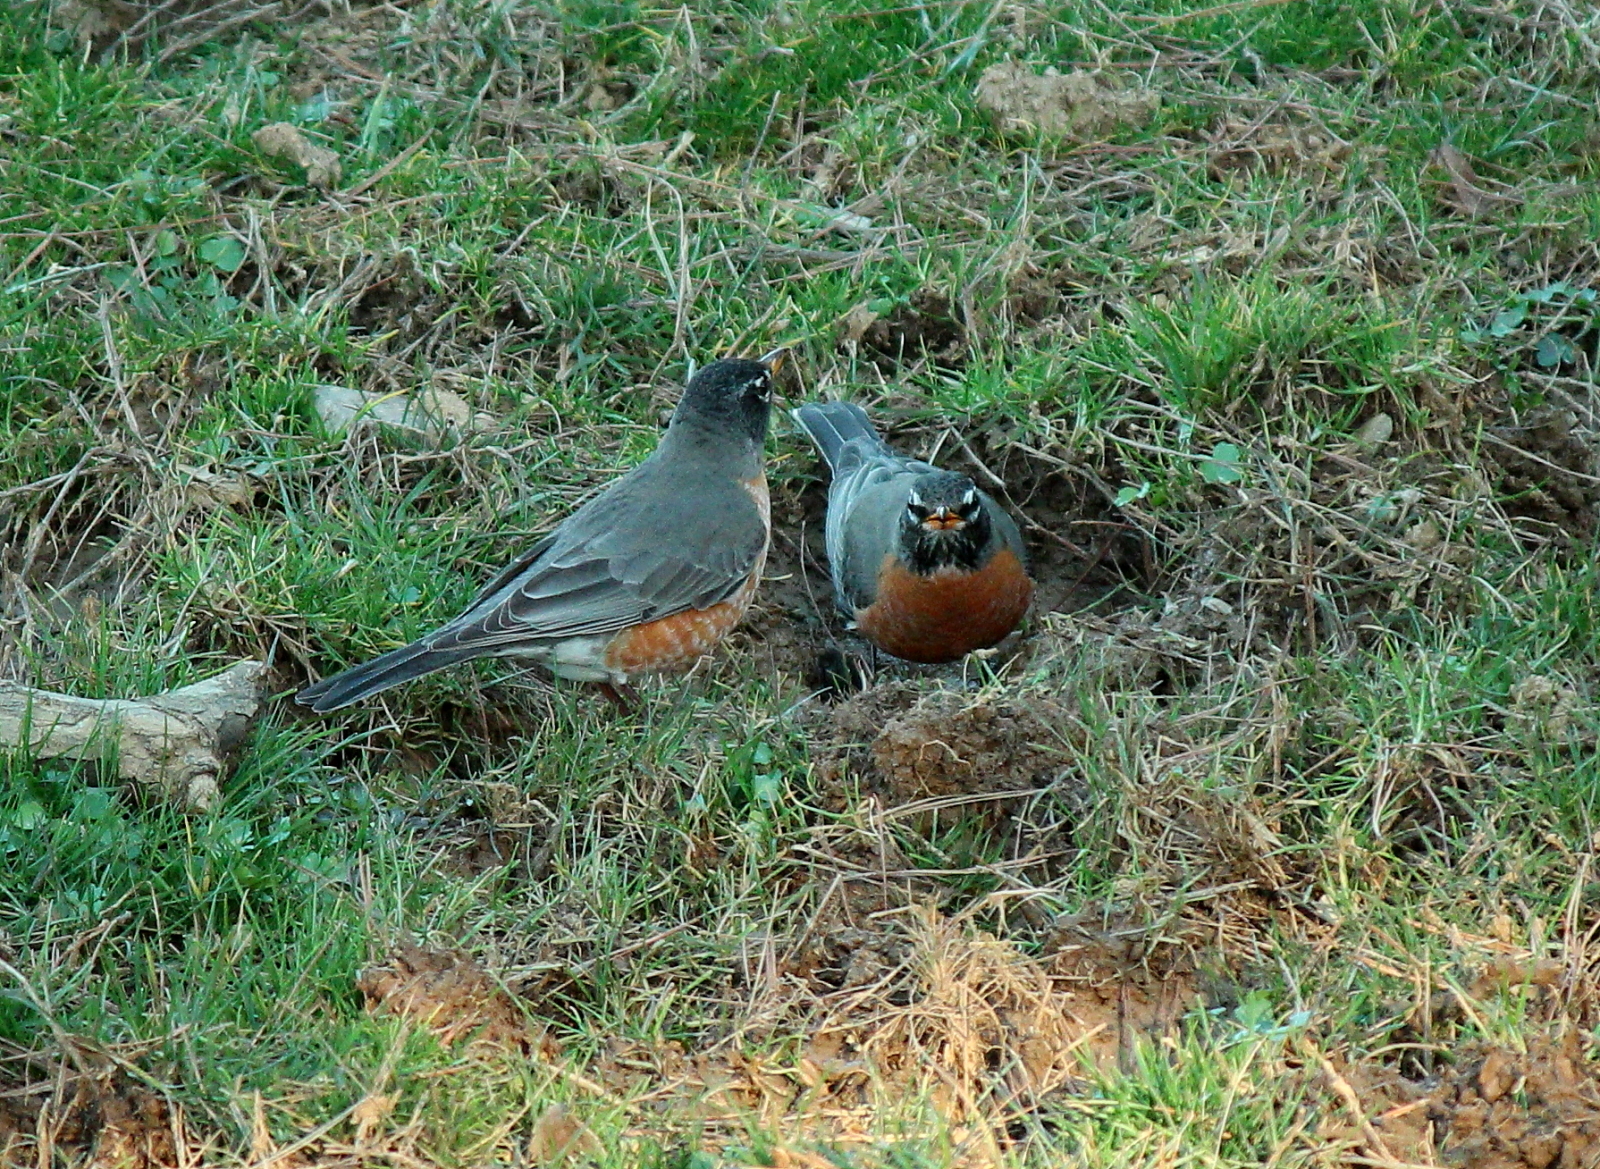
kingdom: Animalia
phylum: Chordata
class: Aves
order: Passeriformes
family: Turdidae
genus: Turdus
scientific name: Turdus migratorius
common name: American robin
